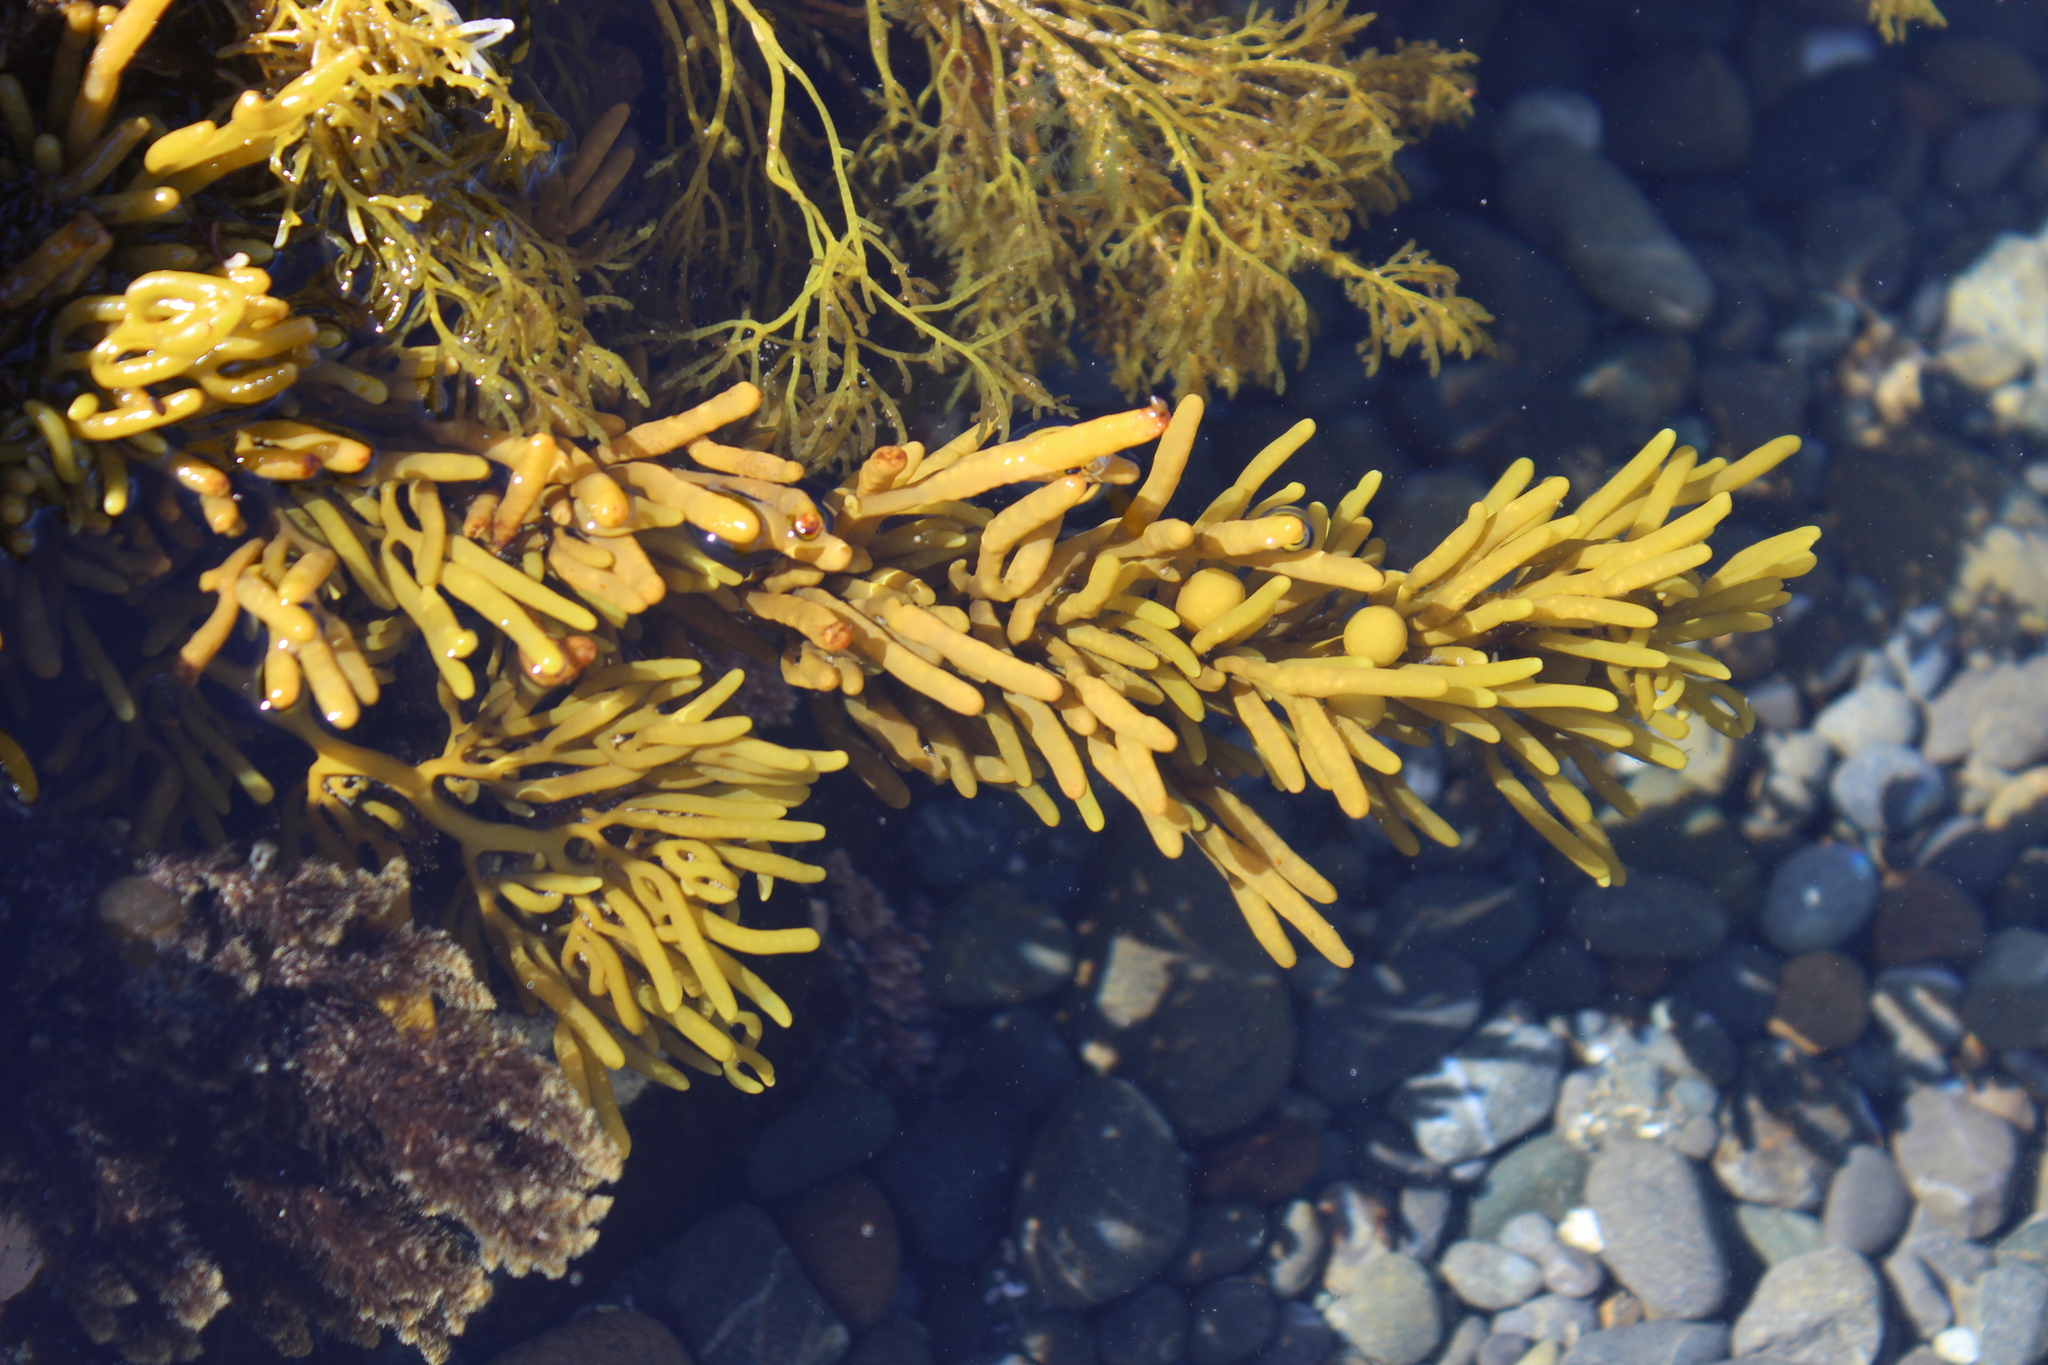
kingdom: Chromista
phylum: Ochrophyta
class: Phaeophyceae
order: Fucales
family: Sargassaceae
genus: Cystophora
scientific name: Cystophora torulosa
